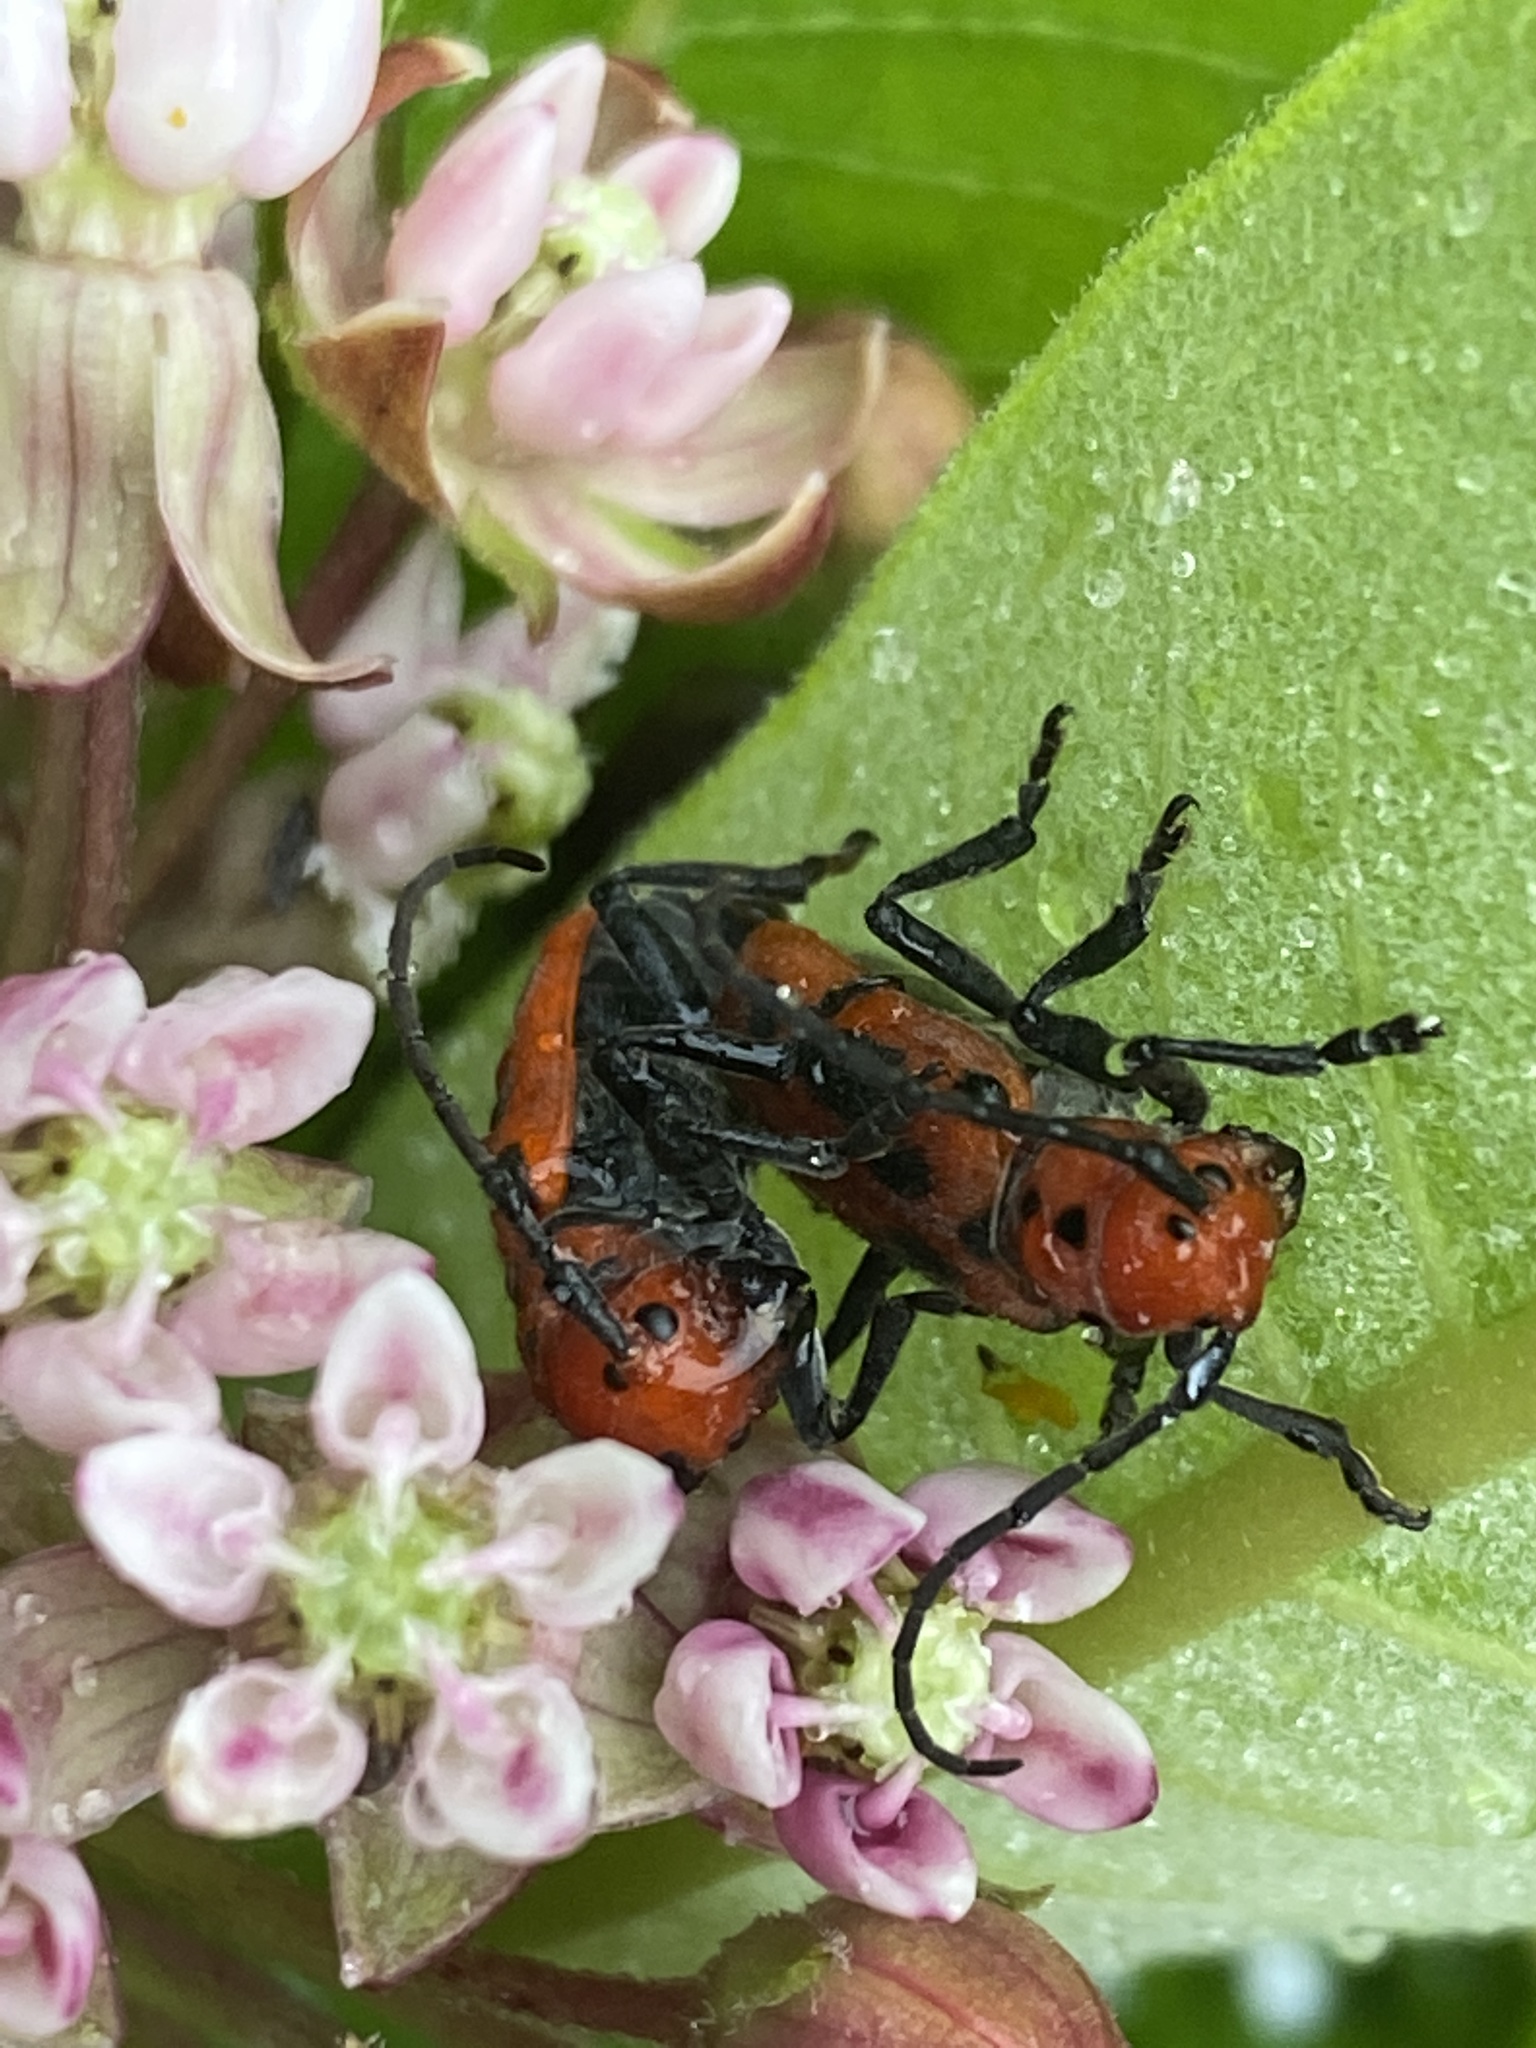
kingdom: Animalia
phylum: Arthropoda
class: Insecta
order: Coleoptera
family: Cerambycidae
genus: Tetraopes
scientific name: Tetraopes tetrophthalmus
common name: Red milkweed beetle
